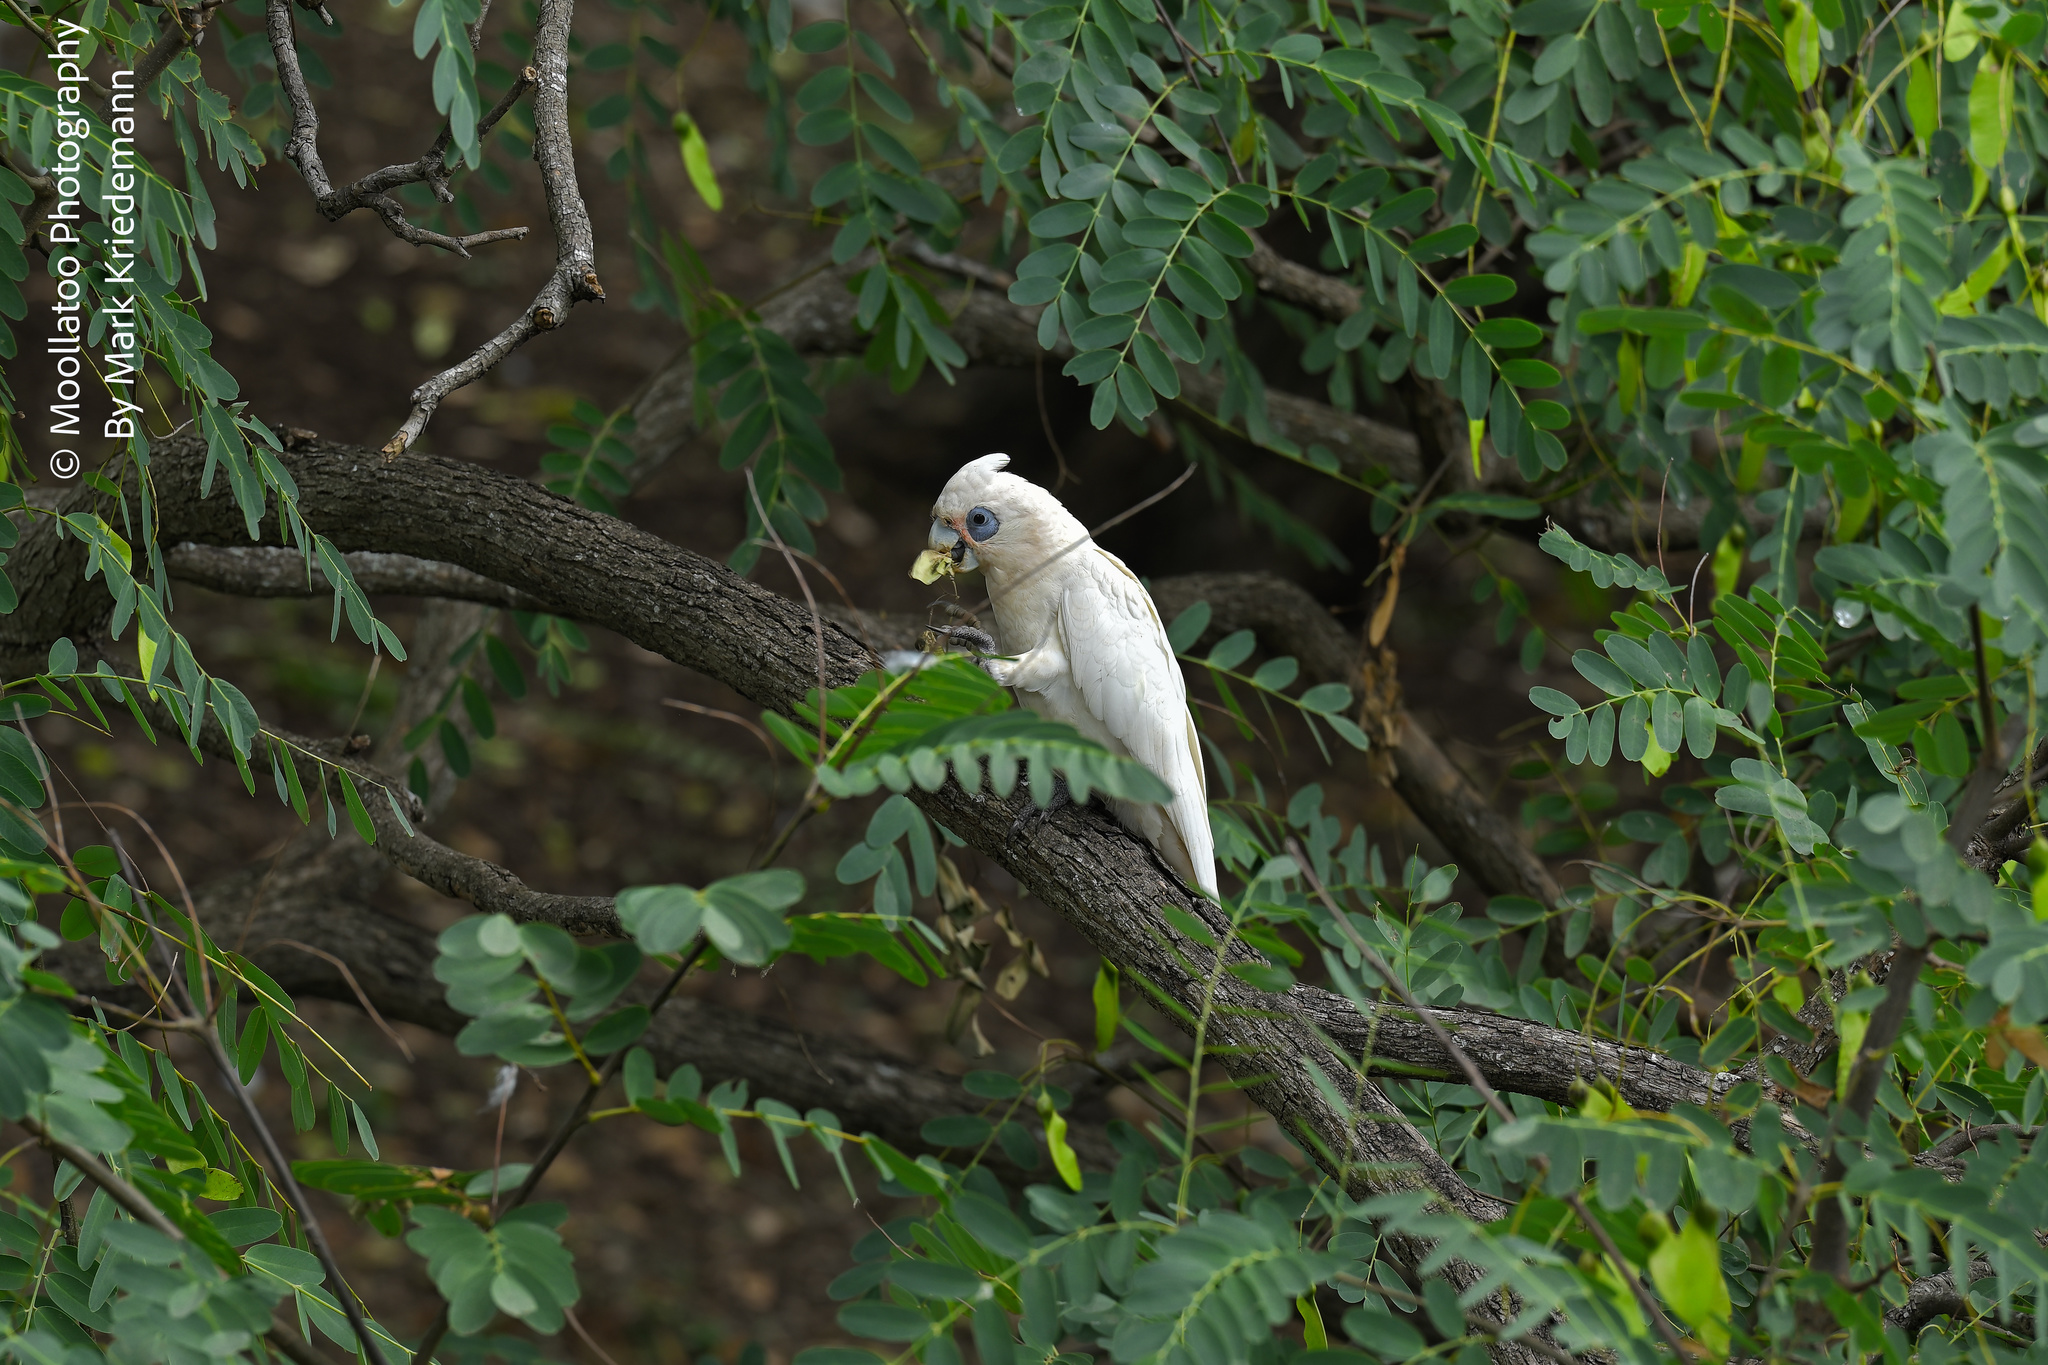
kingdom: Animalia
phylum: Chordata
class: Aves
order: Psittaciformes
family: Psittacidae
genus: Cacatua
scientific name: Cacatua sanguinea
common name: Little corella
